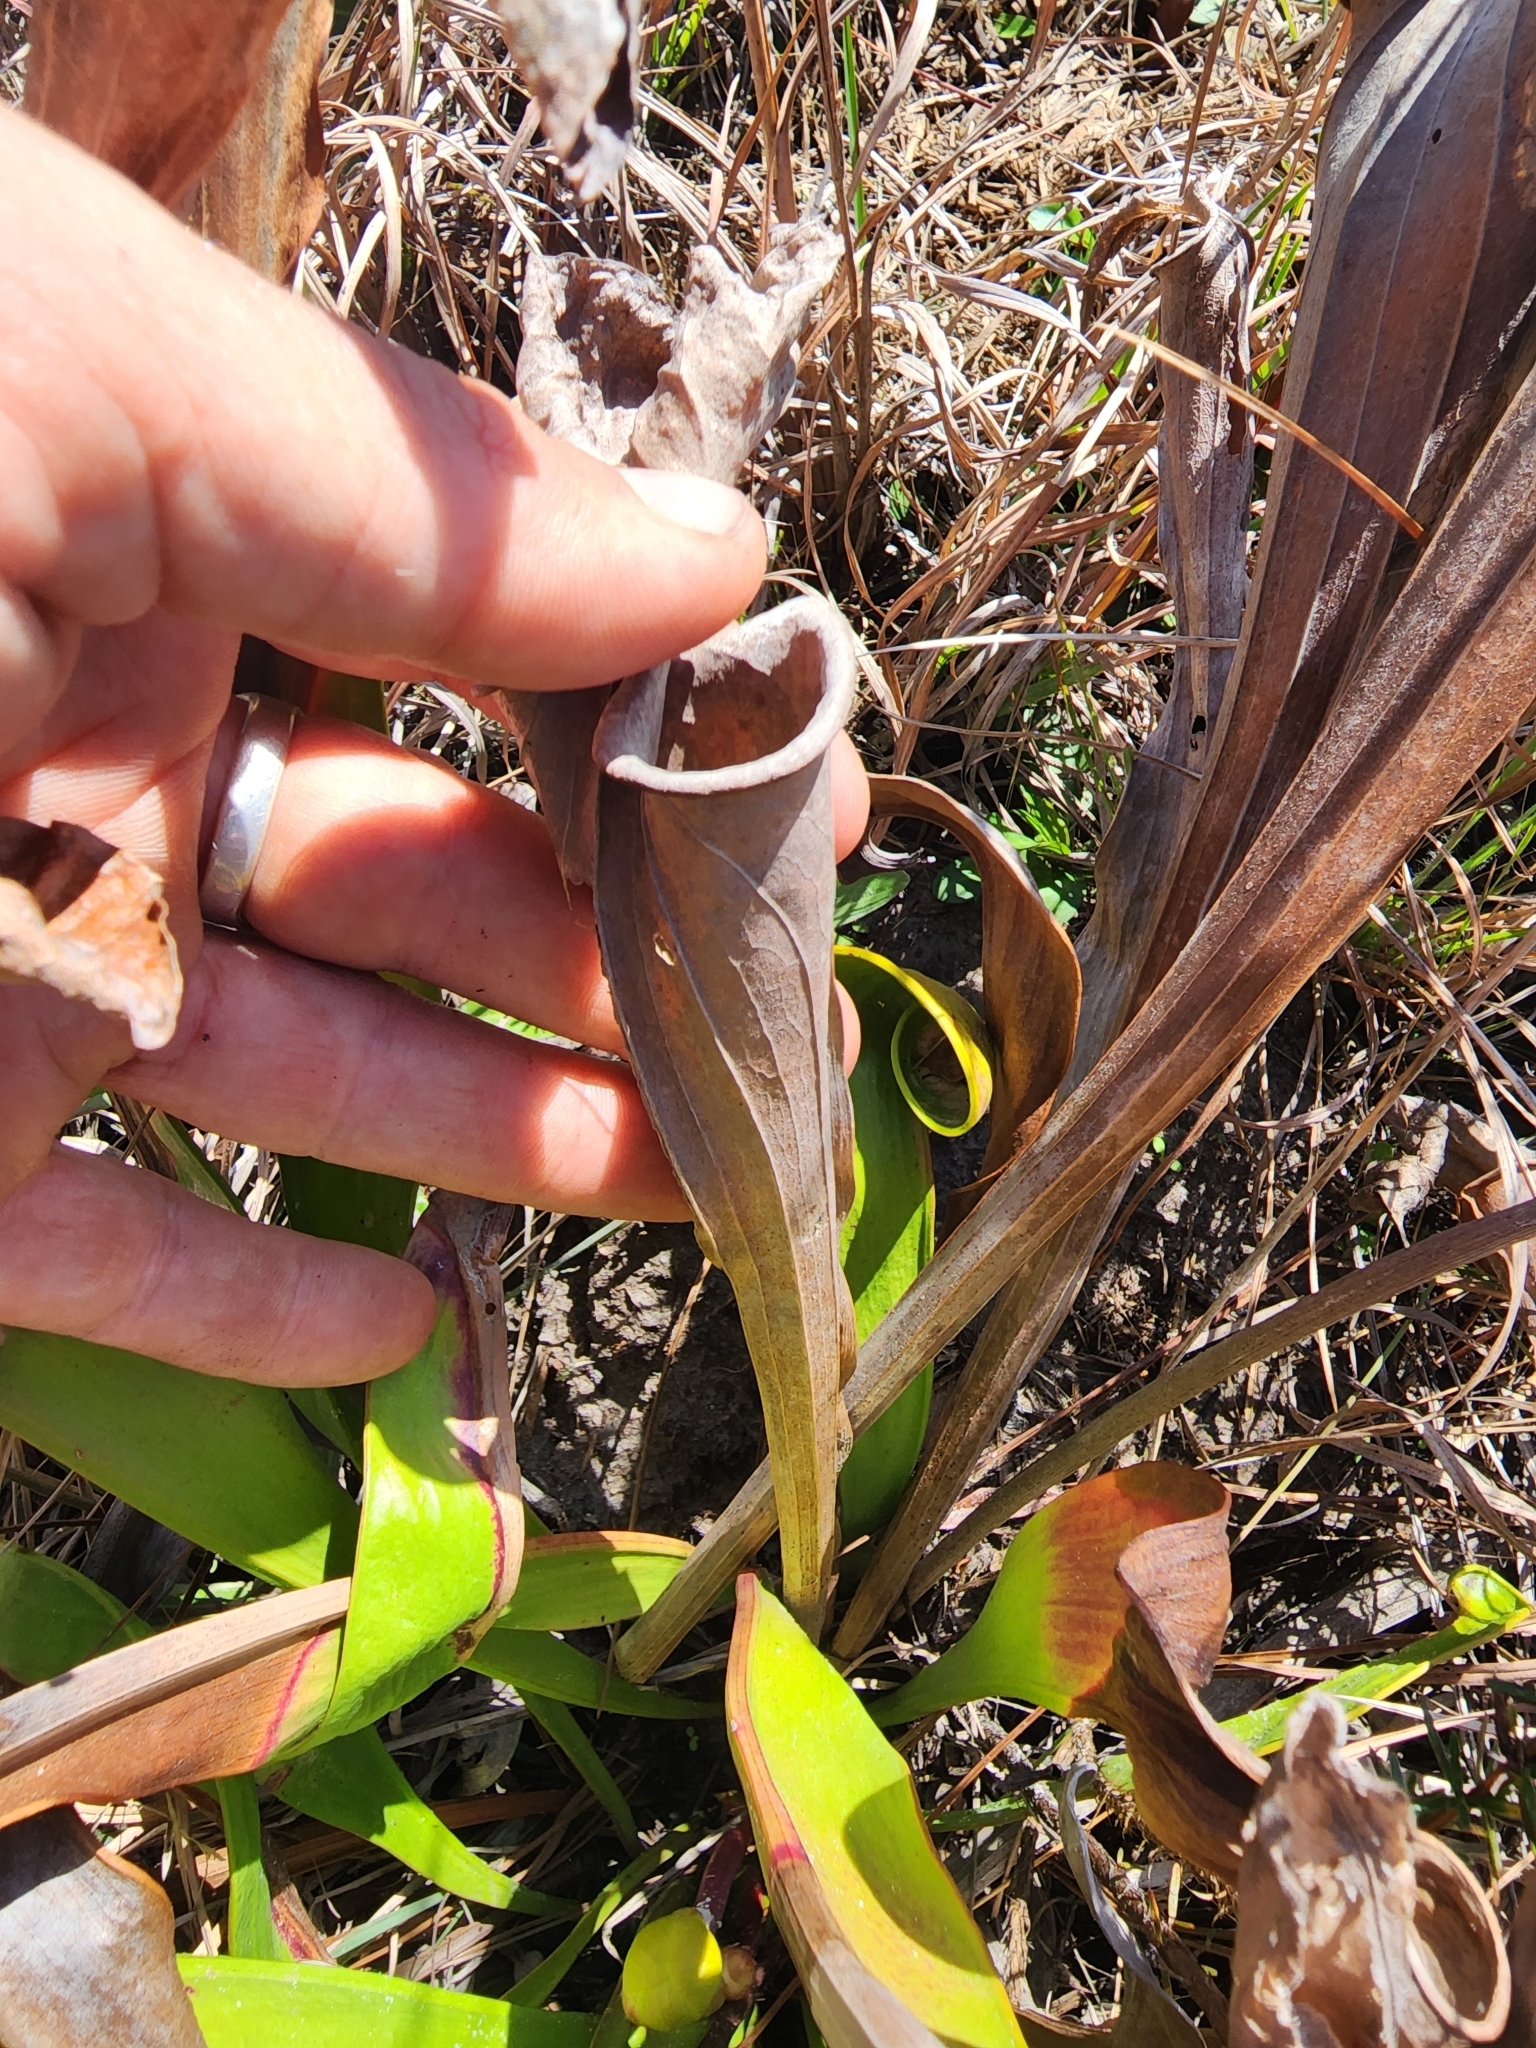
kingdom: Plantae
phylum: Tracheophyta
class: Magnoliopsida
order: Ericales
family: Sarraceniaceae
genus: Sarracenia
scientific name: Sarracenia flava
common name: Trumpets
